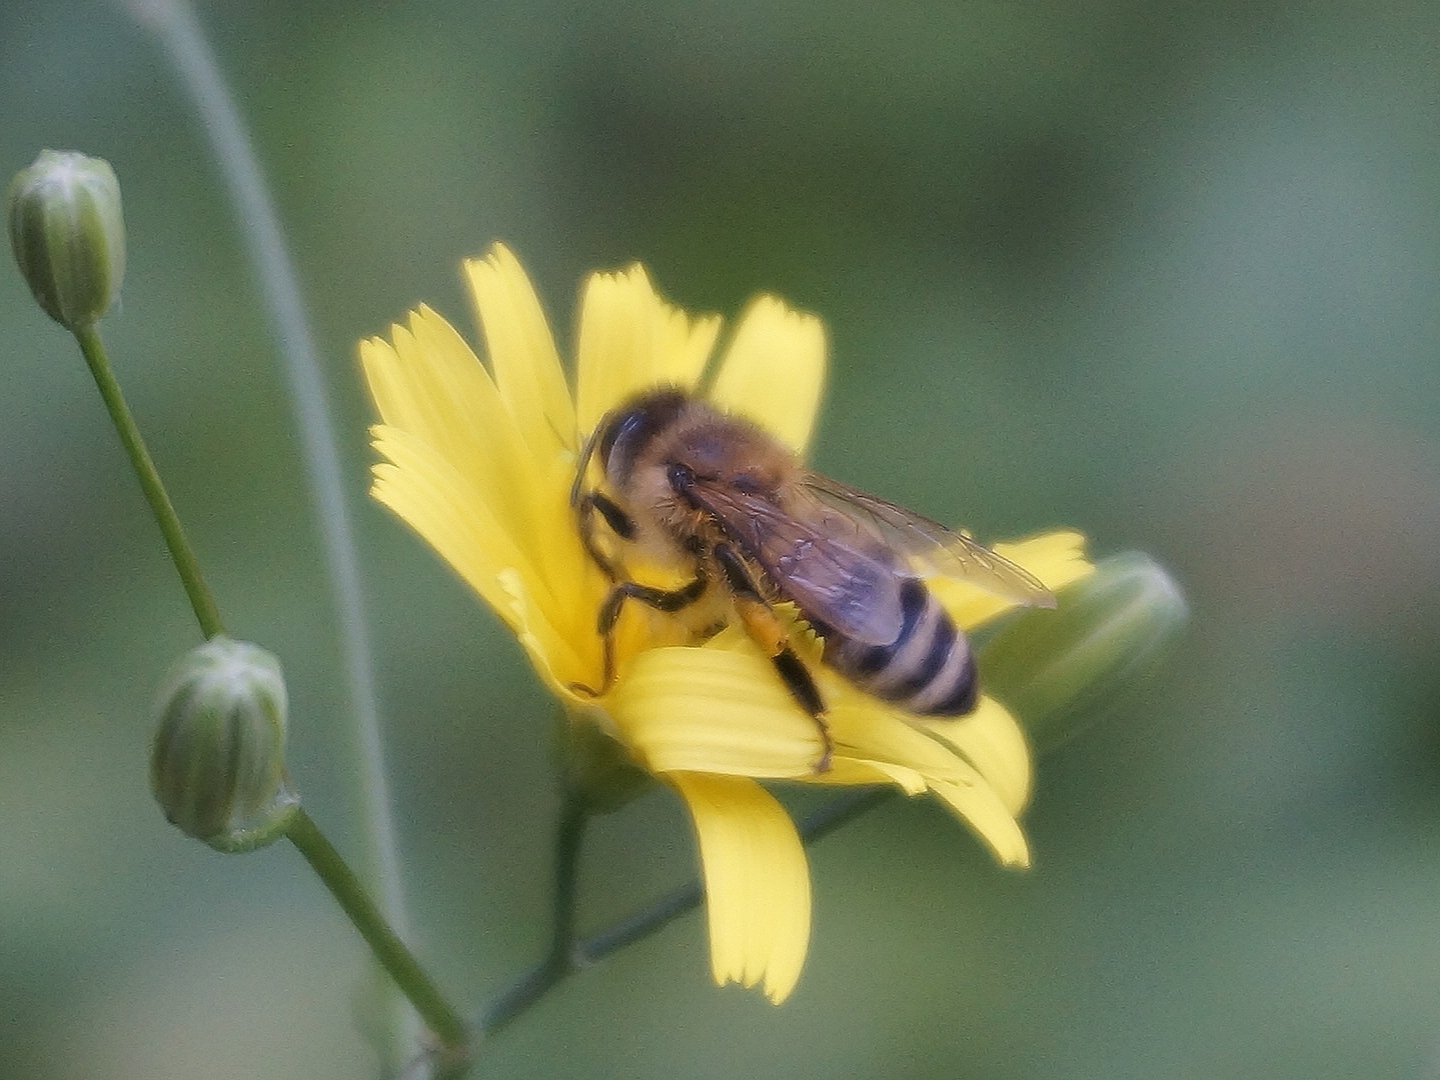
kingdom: Animalia
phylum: Arthropoda
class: Insecta
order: Hymenoptera
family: Apidae
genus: Apis
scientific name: Apis mellifera
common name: Honey bee
